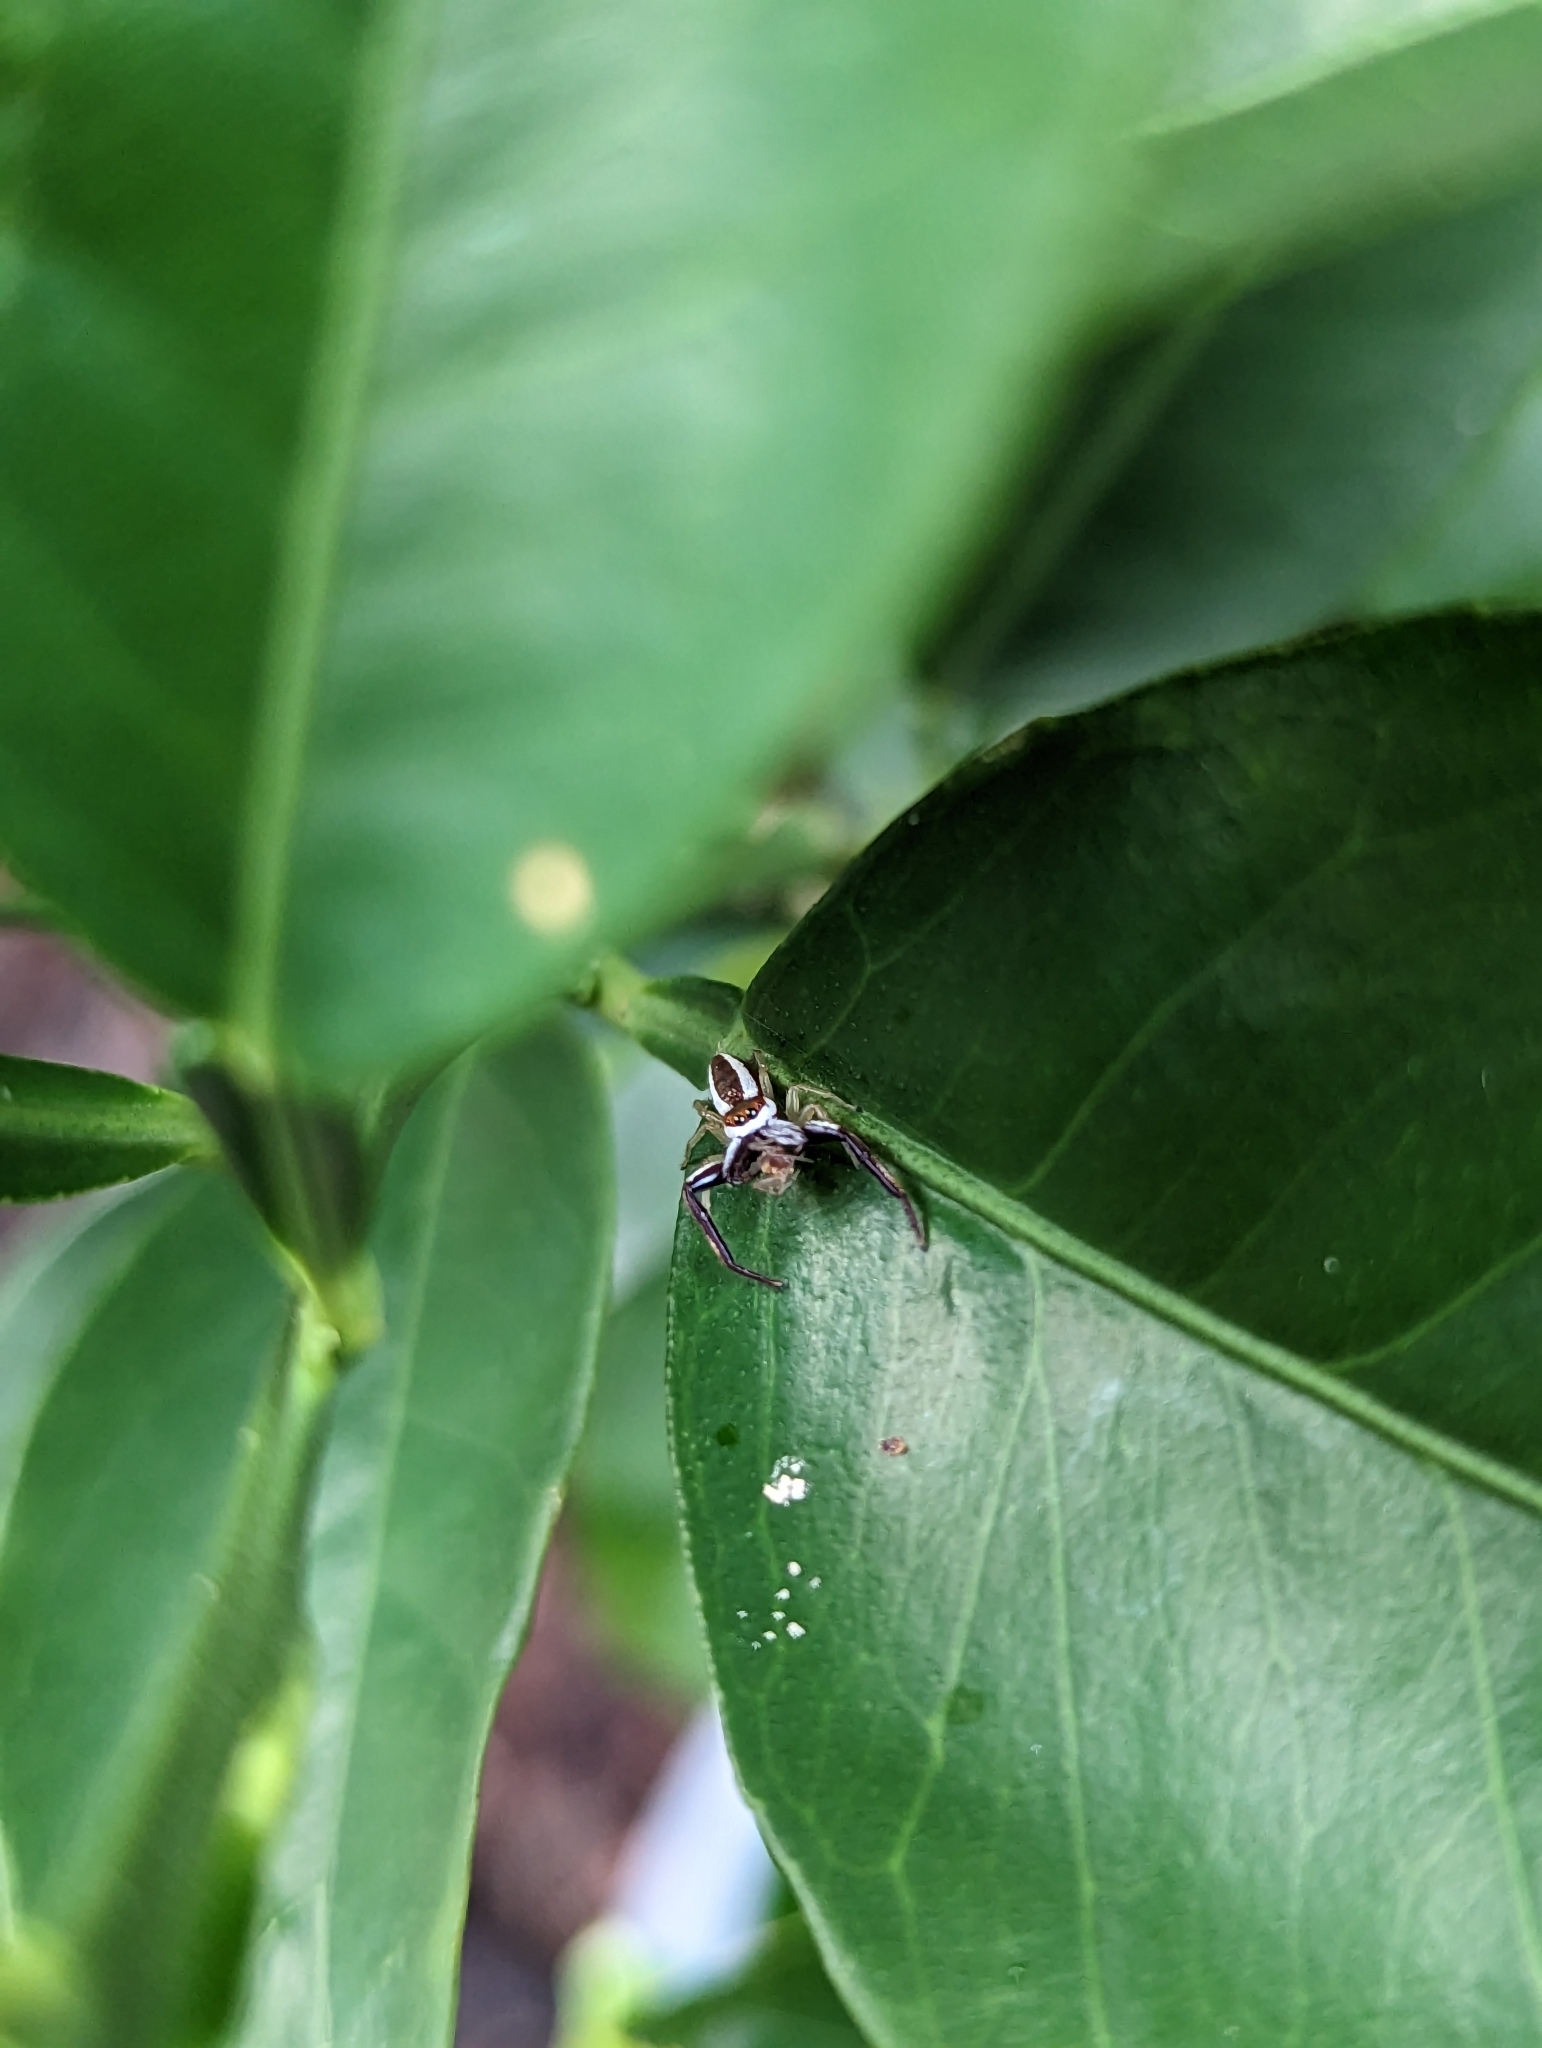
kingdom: Animalia
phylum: Arthropoda
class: Arachnida
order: Araneae
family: Salticidae
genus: Hentzia
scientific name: Hentzia palmarum
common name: Common hentz jumping spider
